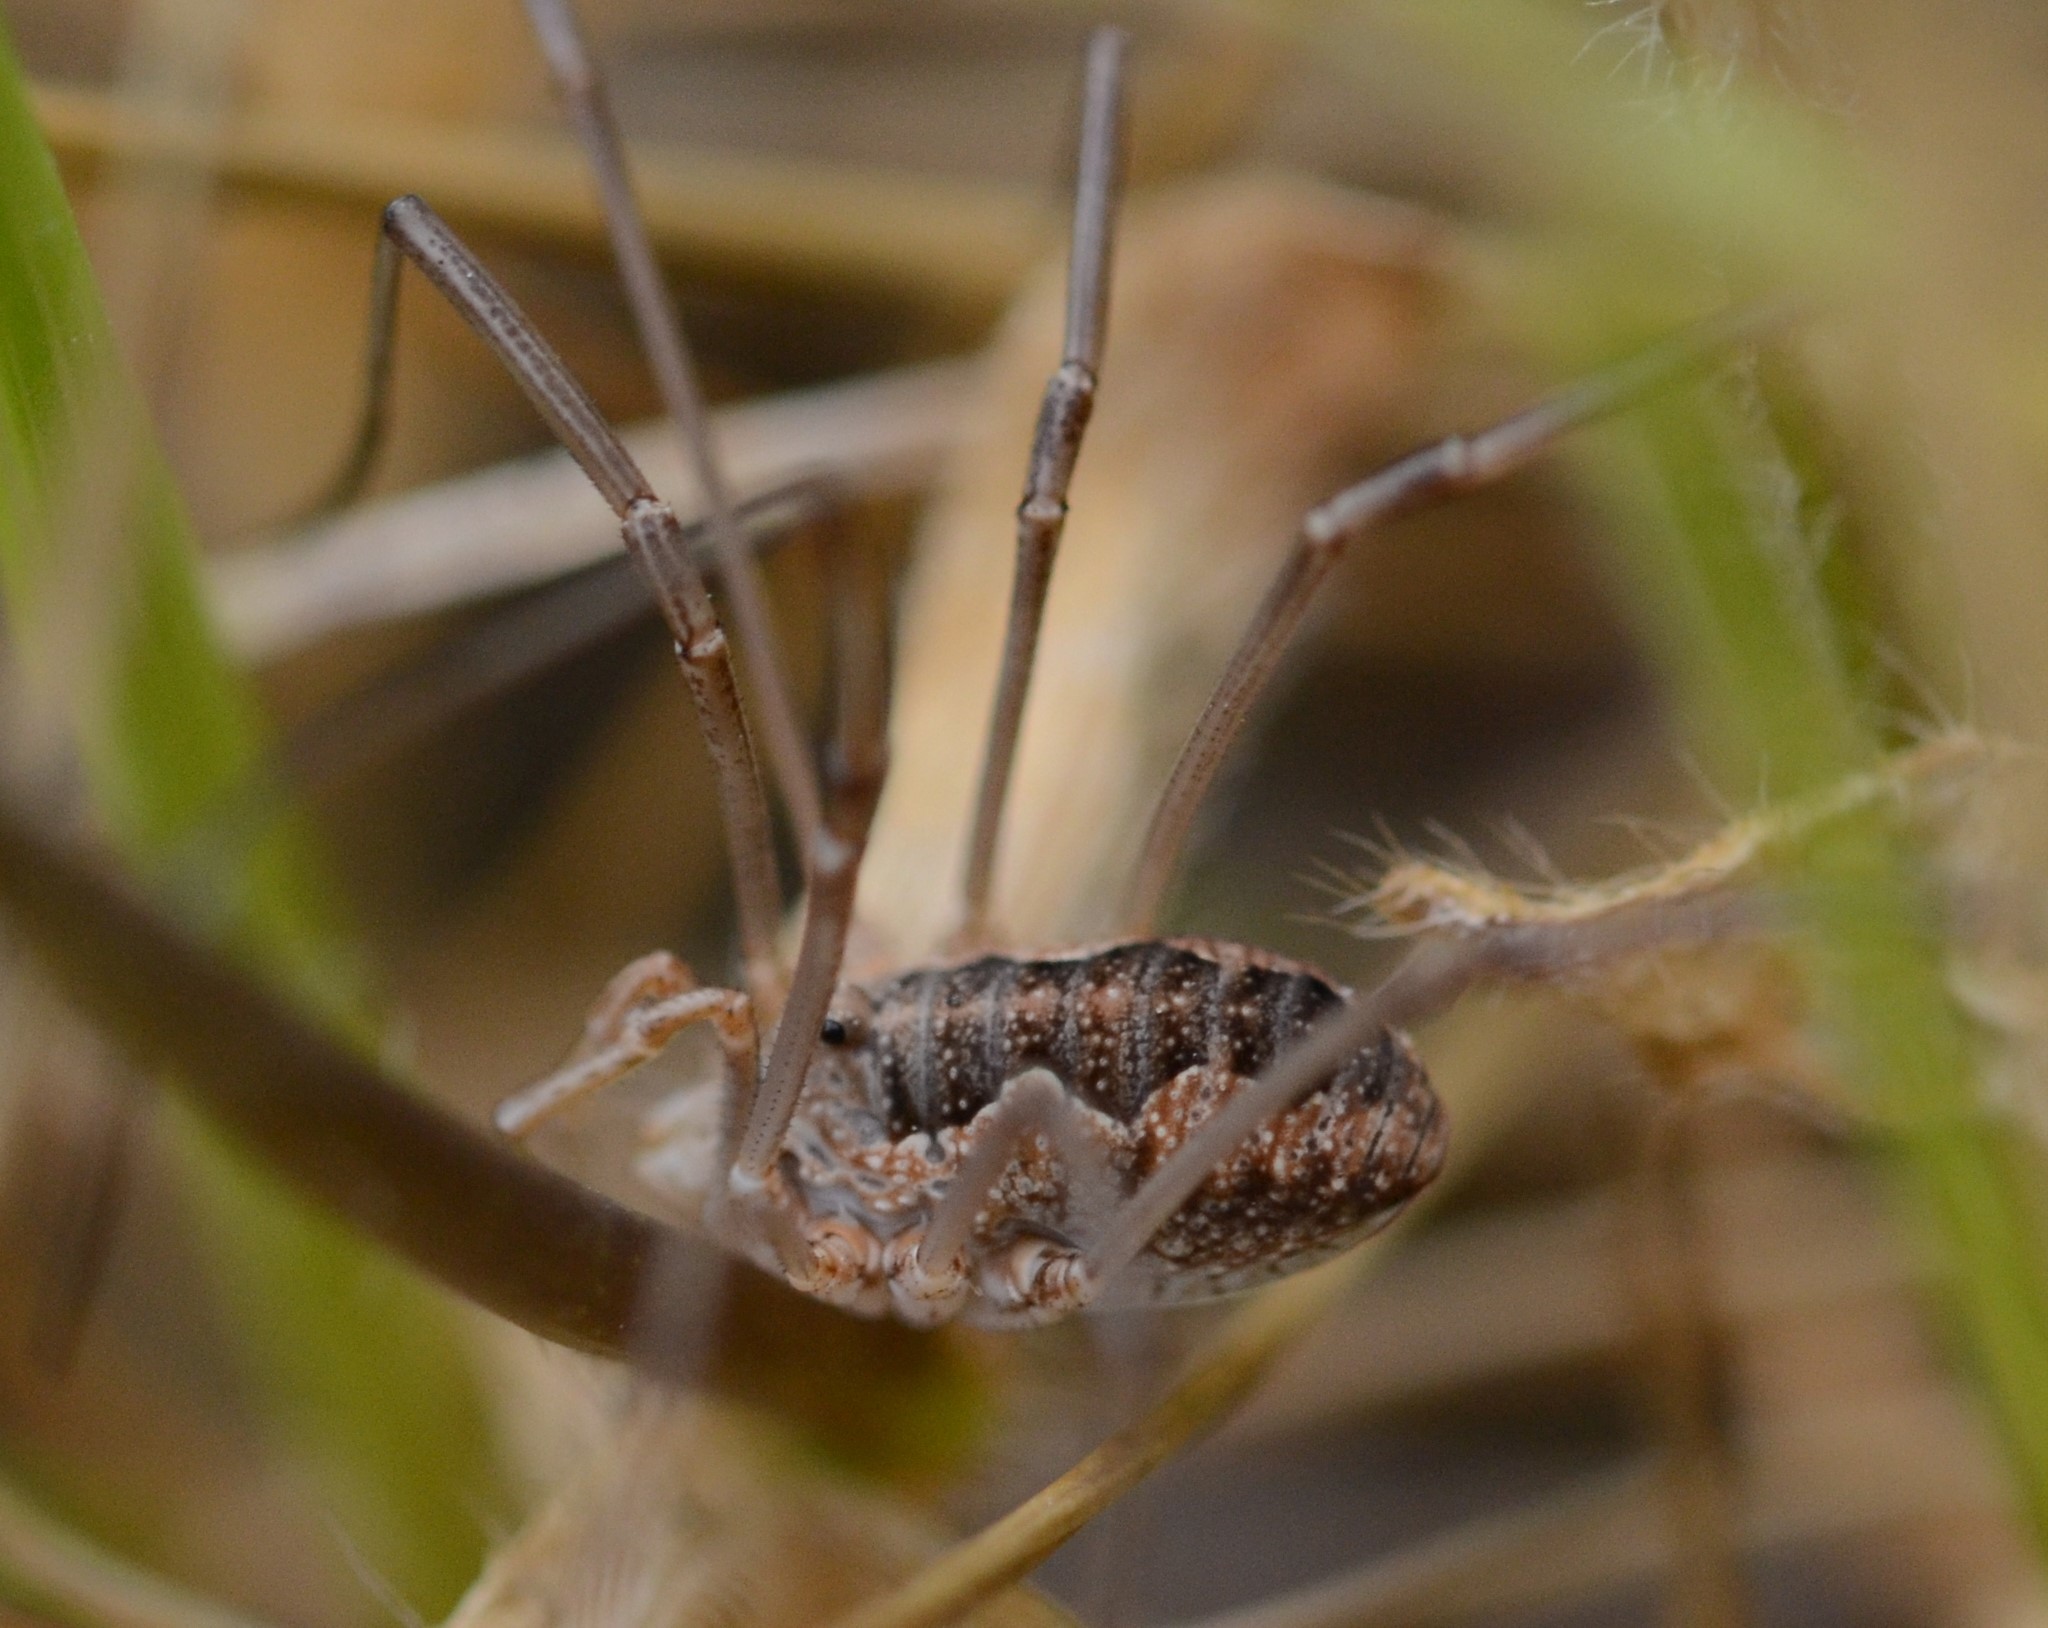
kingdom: Animalia
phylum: Arthropoda
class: Arachnida
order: Opiliones
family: Phalangiidae
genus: Phalangium
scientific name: Phalangium opilio
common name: Daddy longleg
